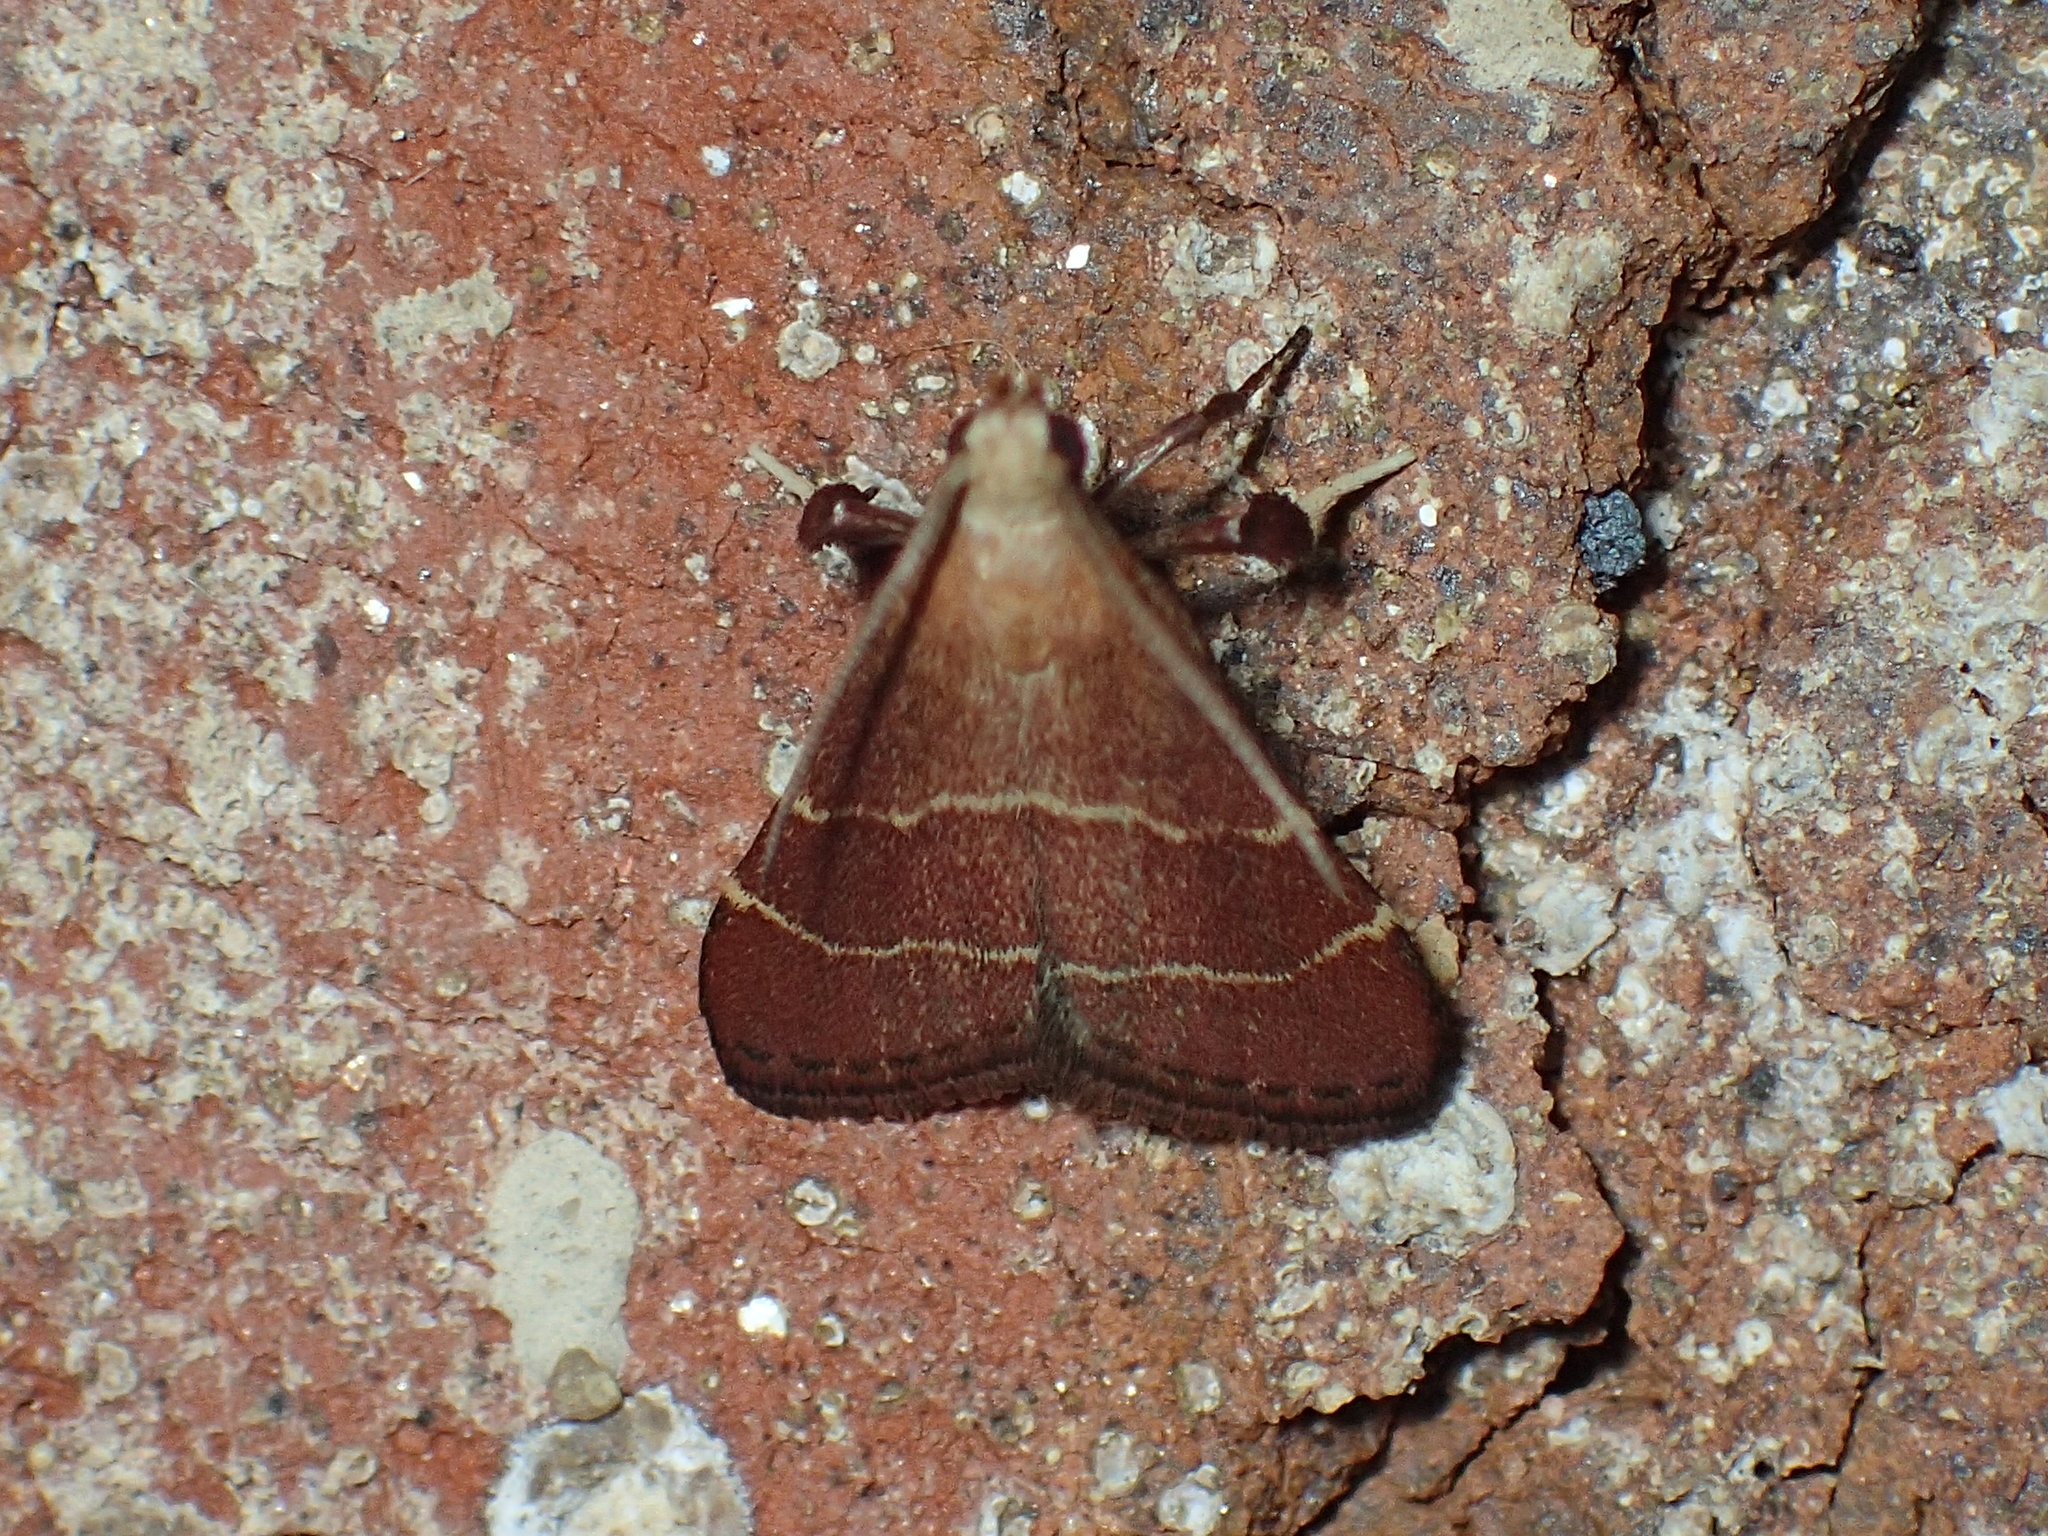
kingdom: Animalia
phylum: Arthropoda
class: Insecta
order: Lepidoptera
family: Pyralidae
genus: Arta
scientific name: Arta statalis
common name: Posturing arta moth
